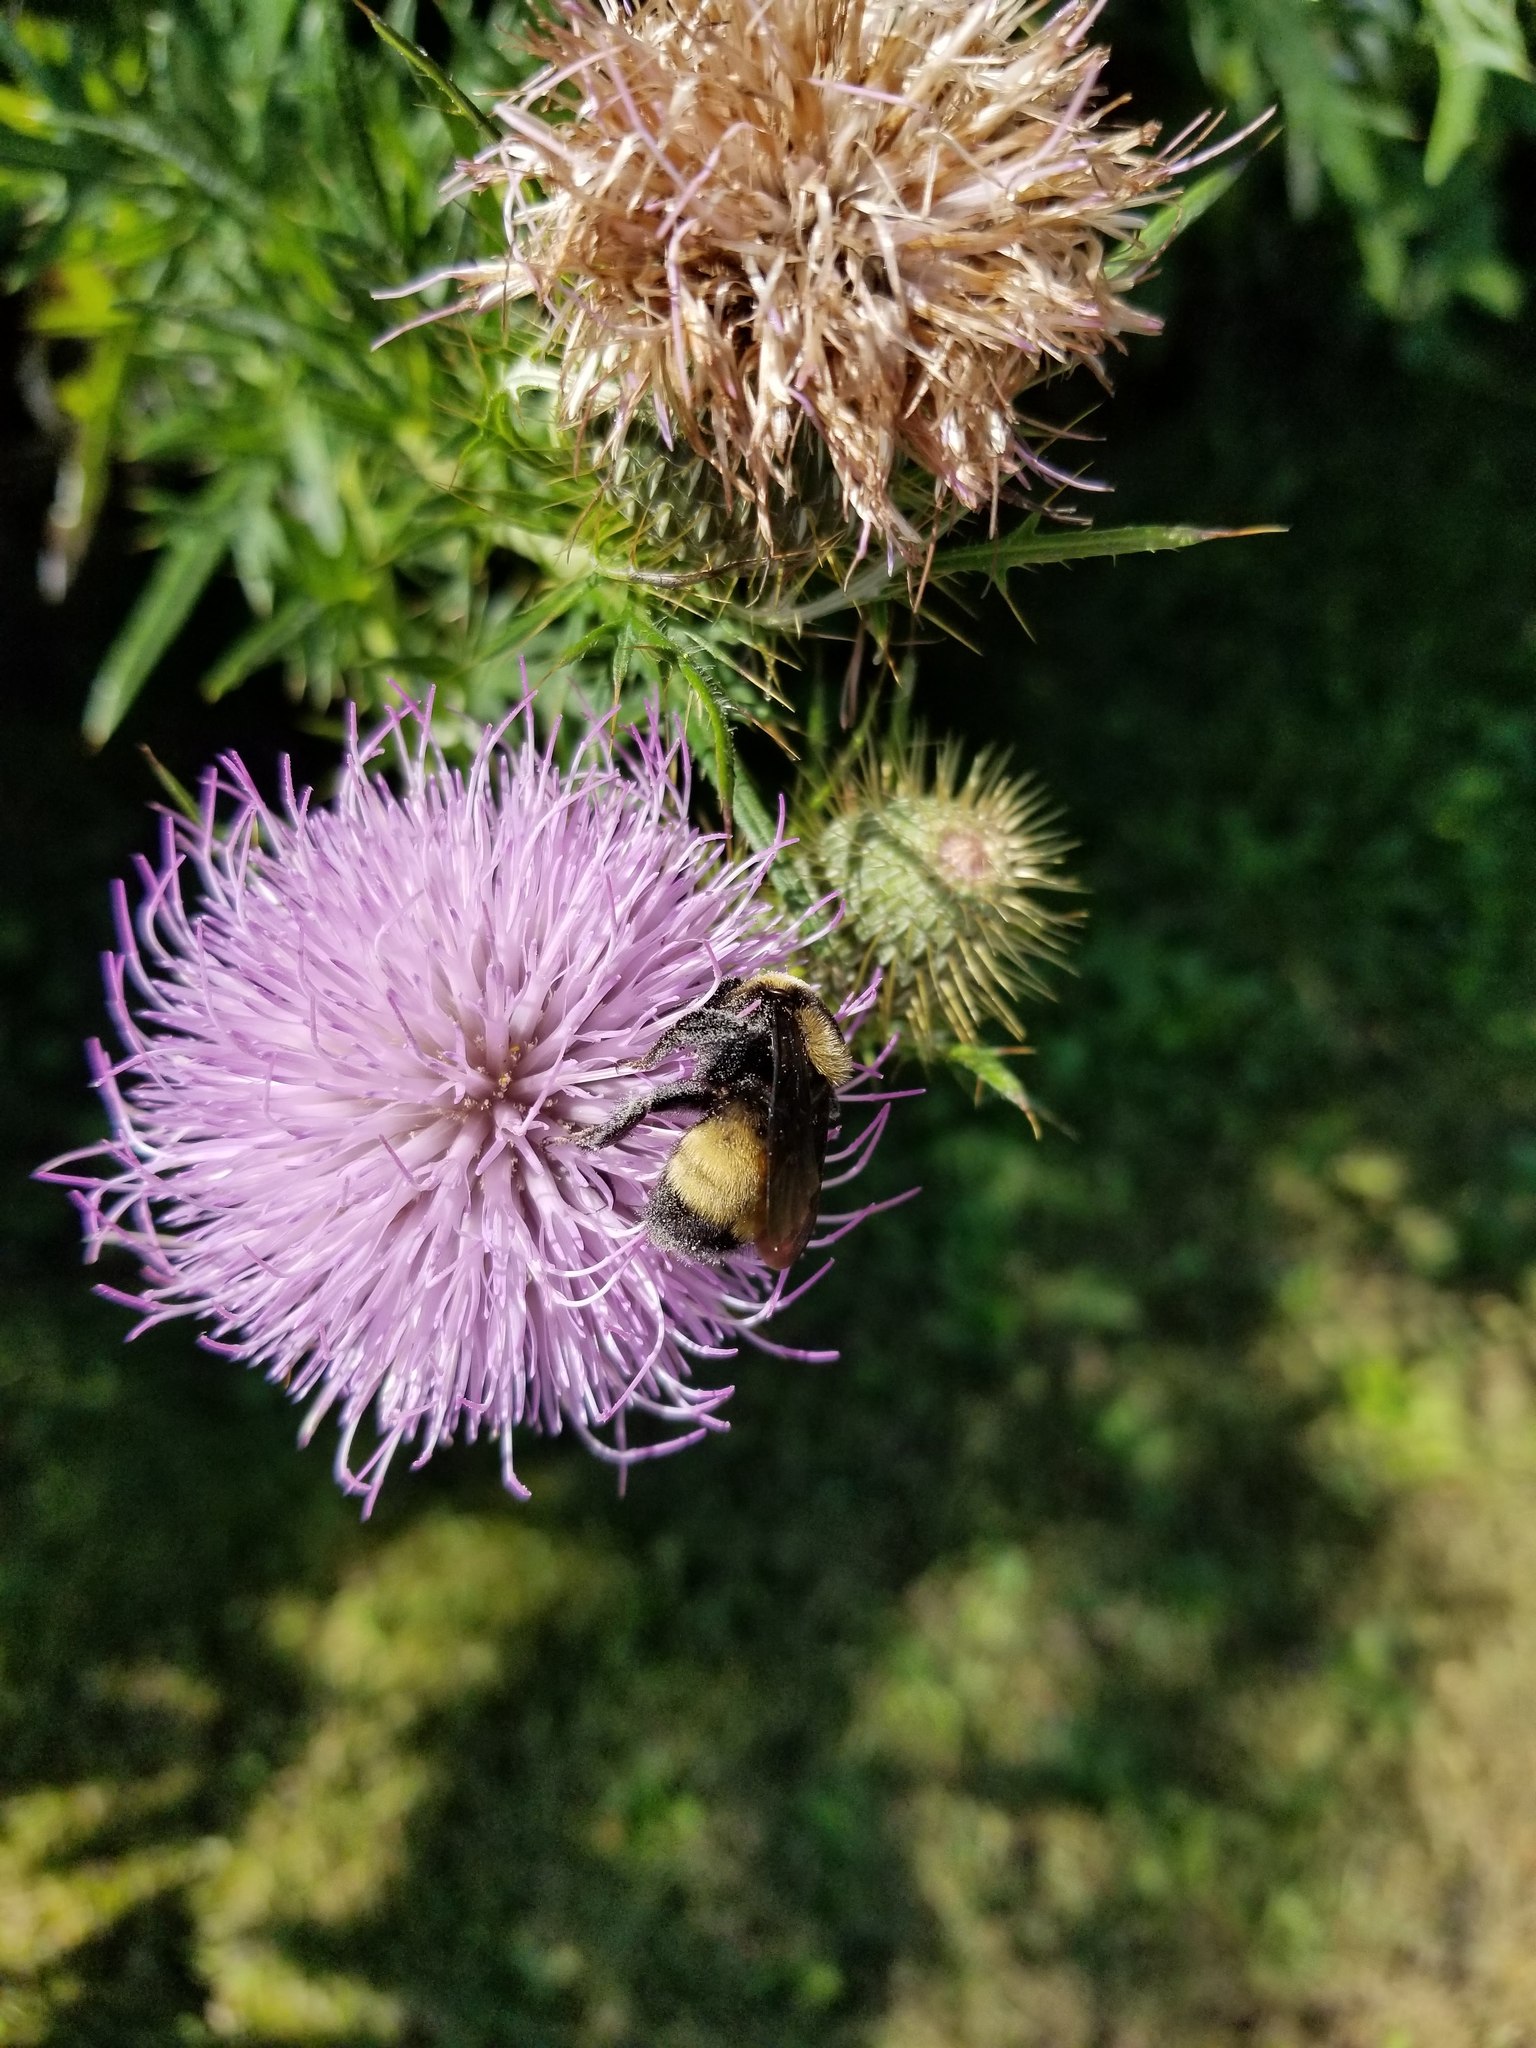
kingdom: Animalia
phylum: Arthropoda
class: Insecta
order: Hymenoptera
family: Apidae
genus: Bombus
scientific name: Bombus auricomus
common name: Black and gold bumble bee
